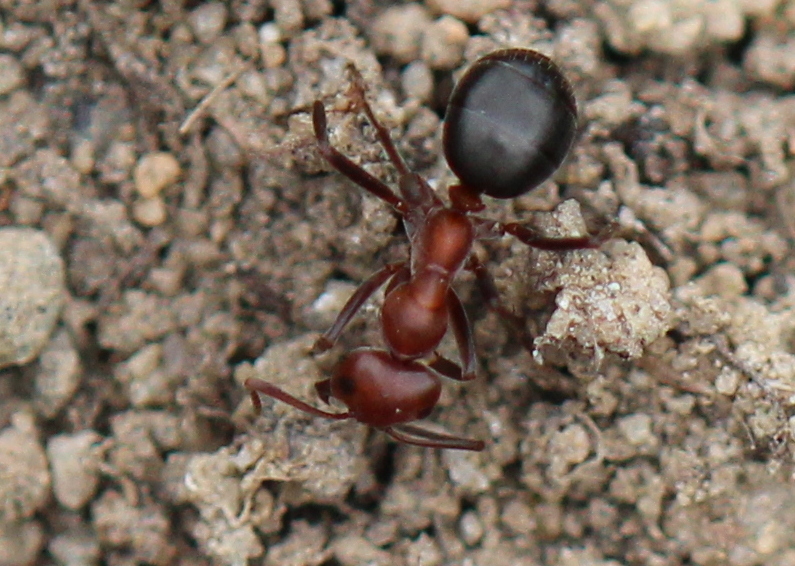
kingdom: Animalia
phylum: Arthropoda
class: Insecta
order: Hymenoptera
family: Formicidae
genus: Formica
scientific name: Formica exsectoides
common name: Allegheny mound ant
